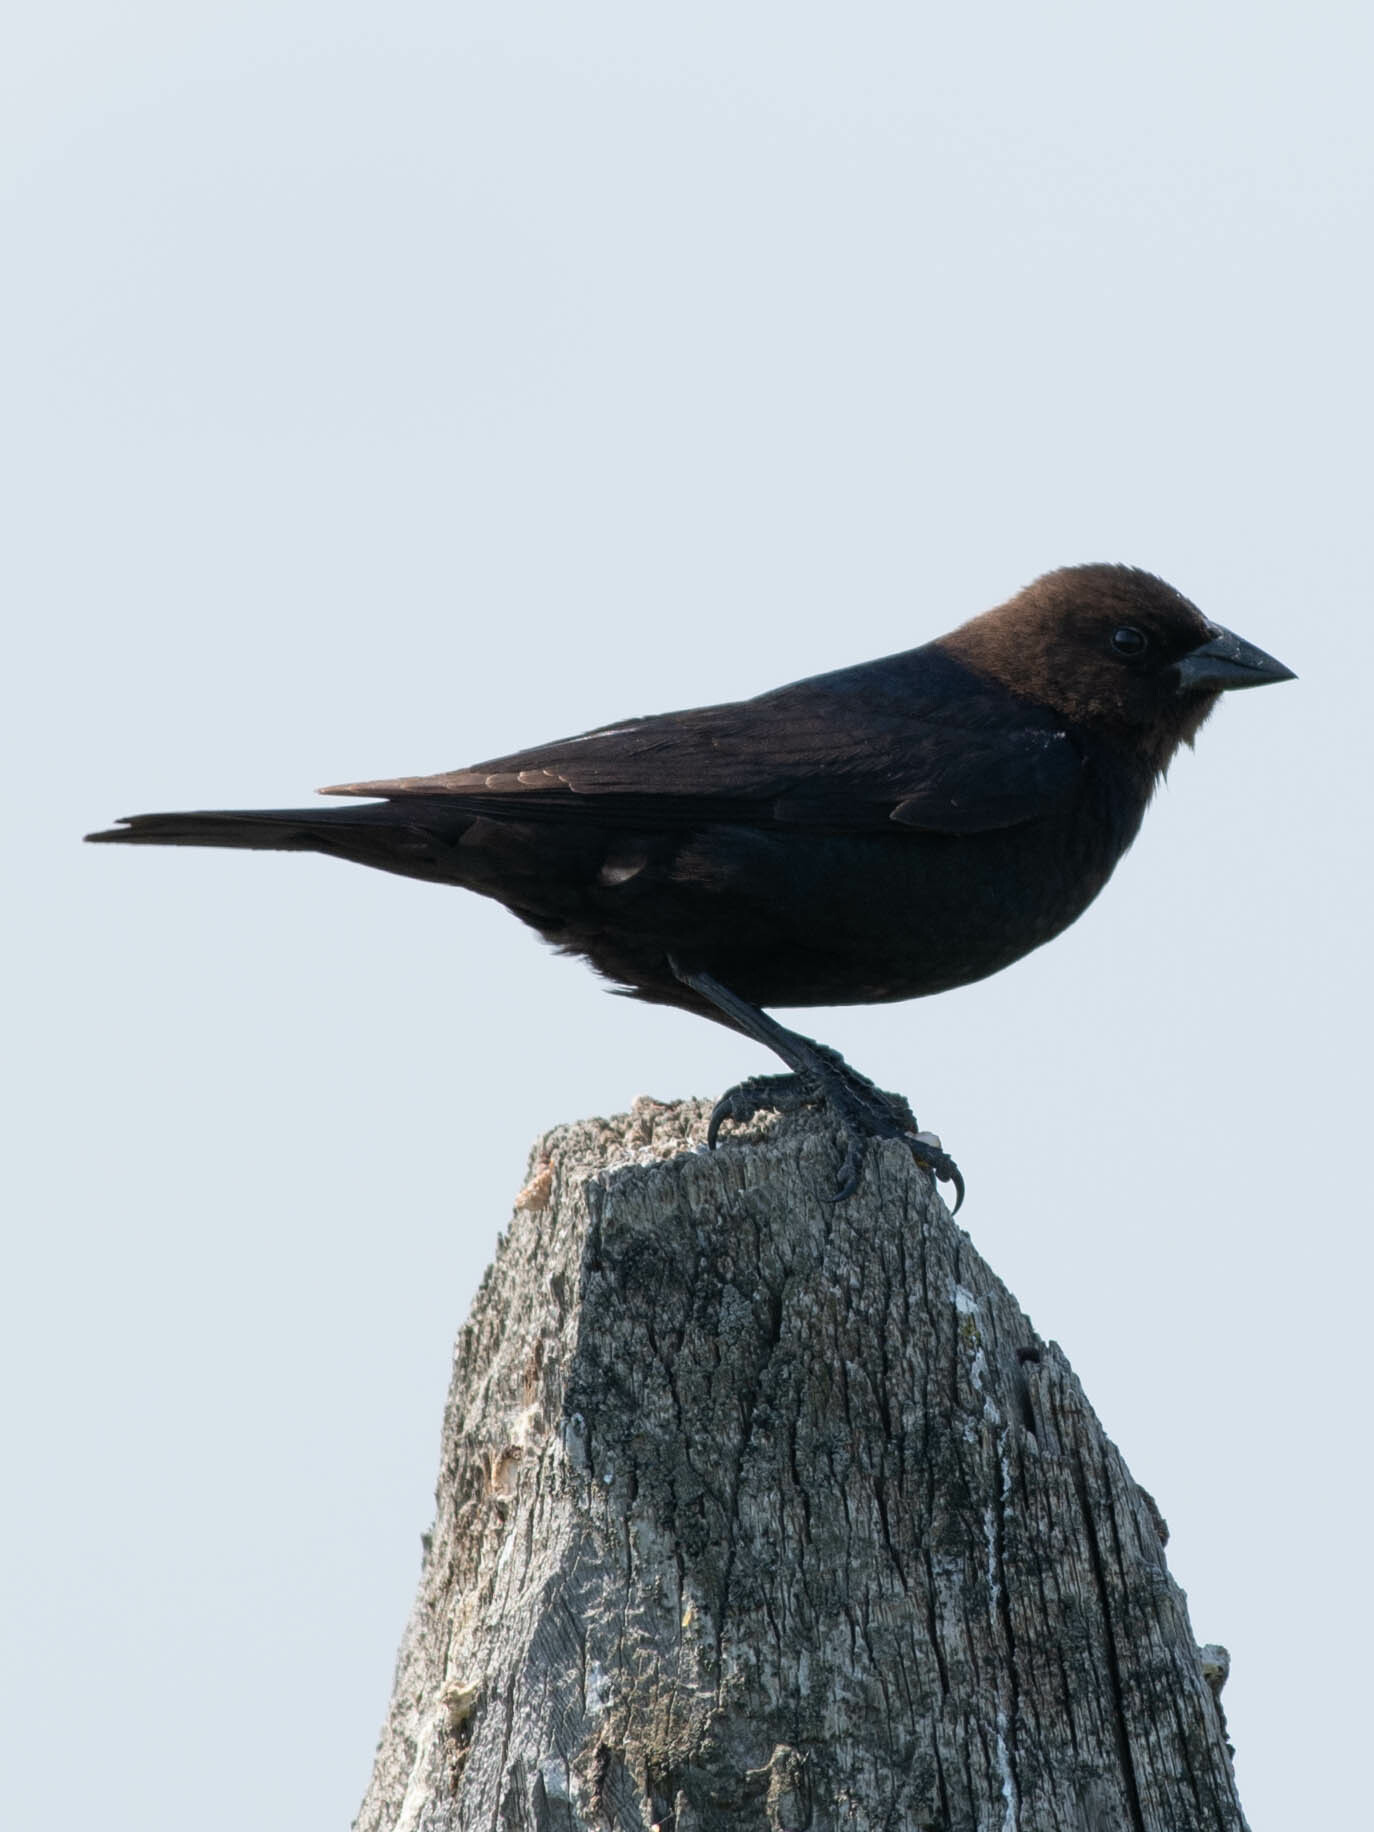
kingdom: Animalia
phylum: Chordata
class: Aves
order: Passeriformes
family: Icteridae
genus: Molothrus
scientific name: Molothrus ater
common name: Brown-headed cowbird
